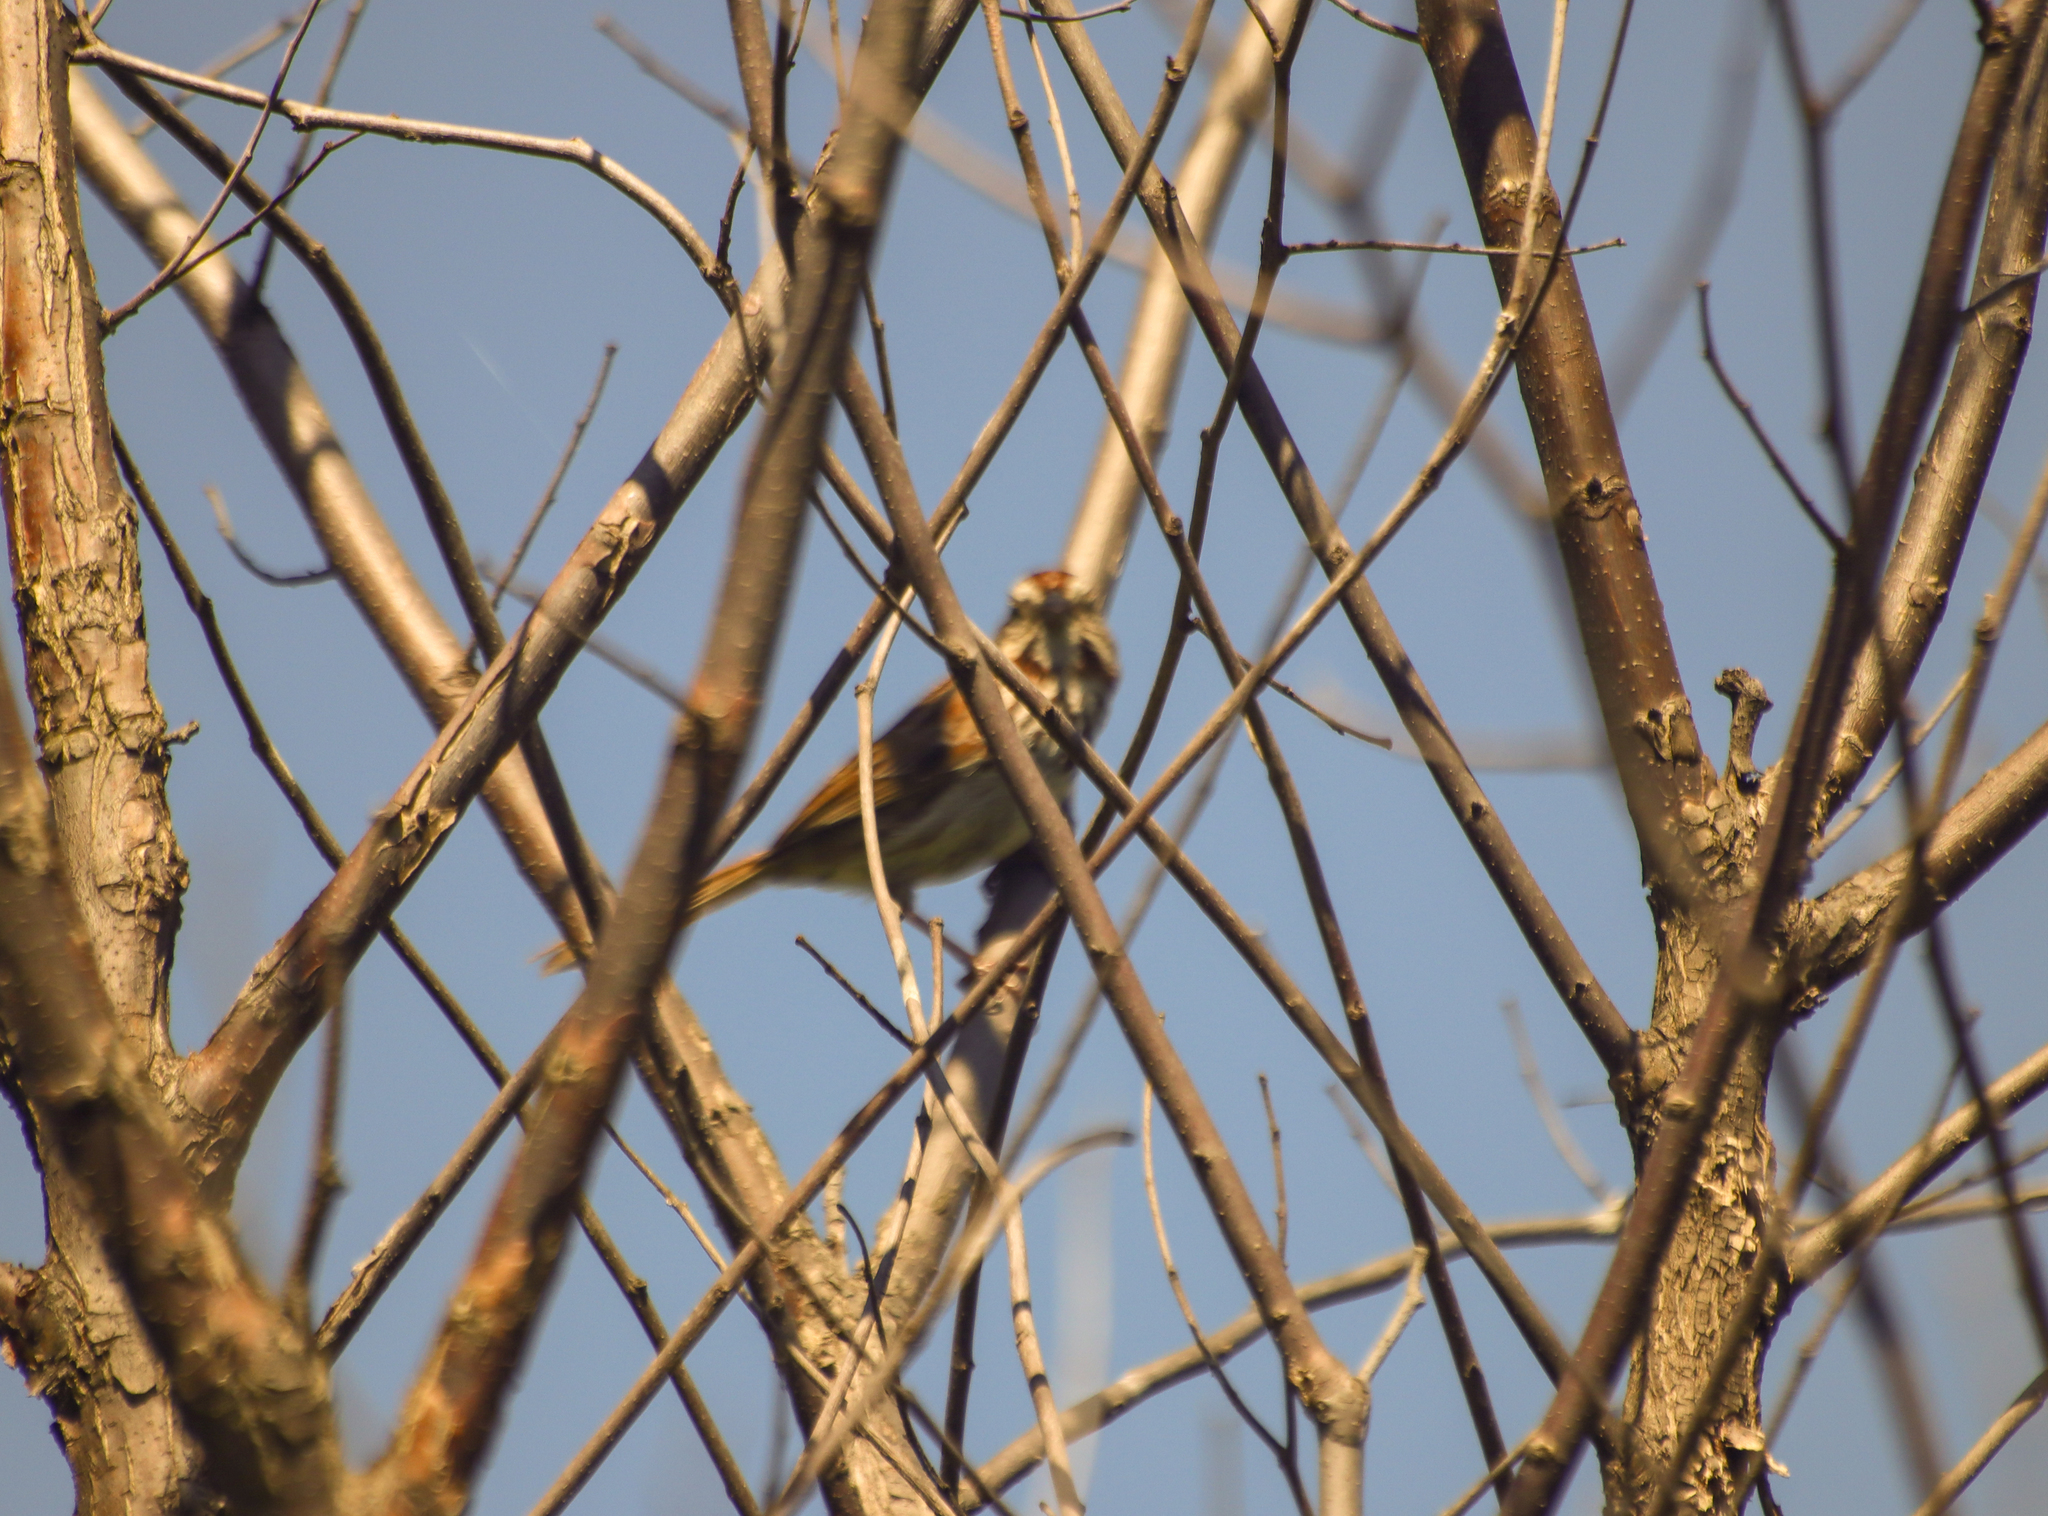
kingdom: Animalia
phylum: Chordata
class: Aves
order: Passeriformes
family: Passerellidae
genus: Melospiza
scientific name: Melospiza melodia
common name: Song sparrow
